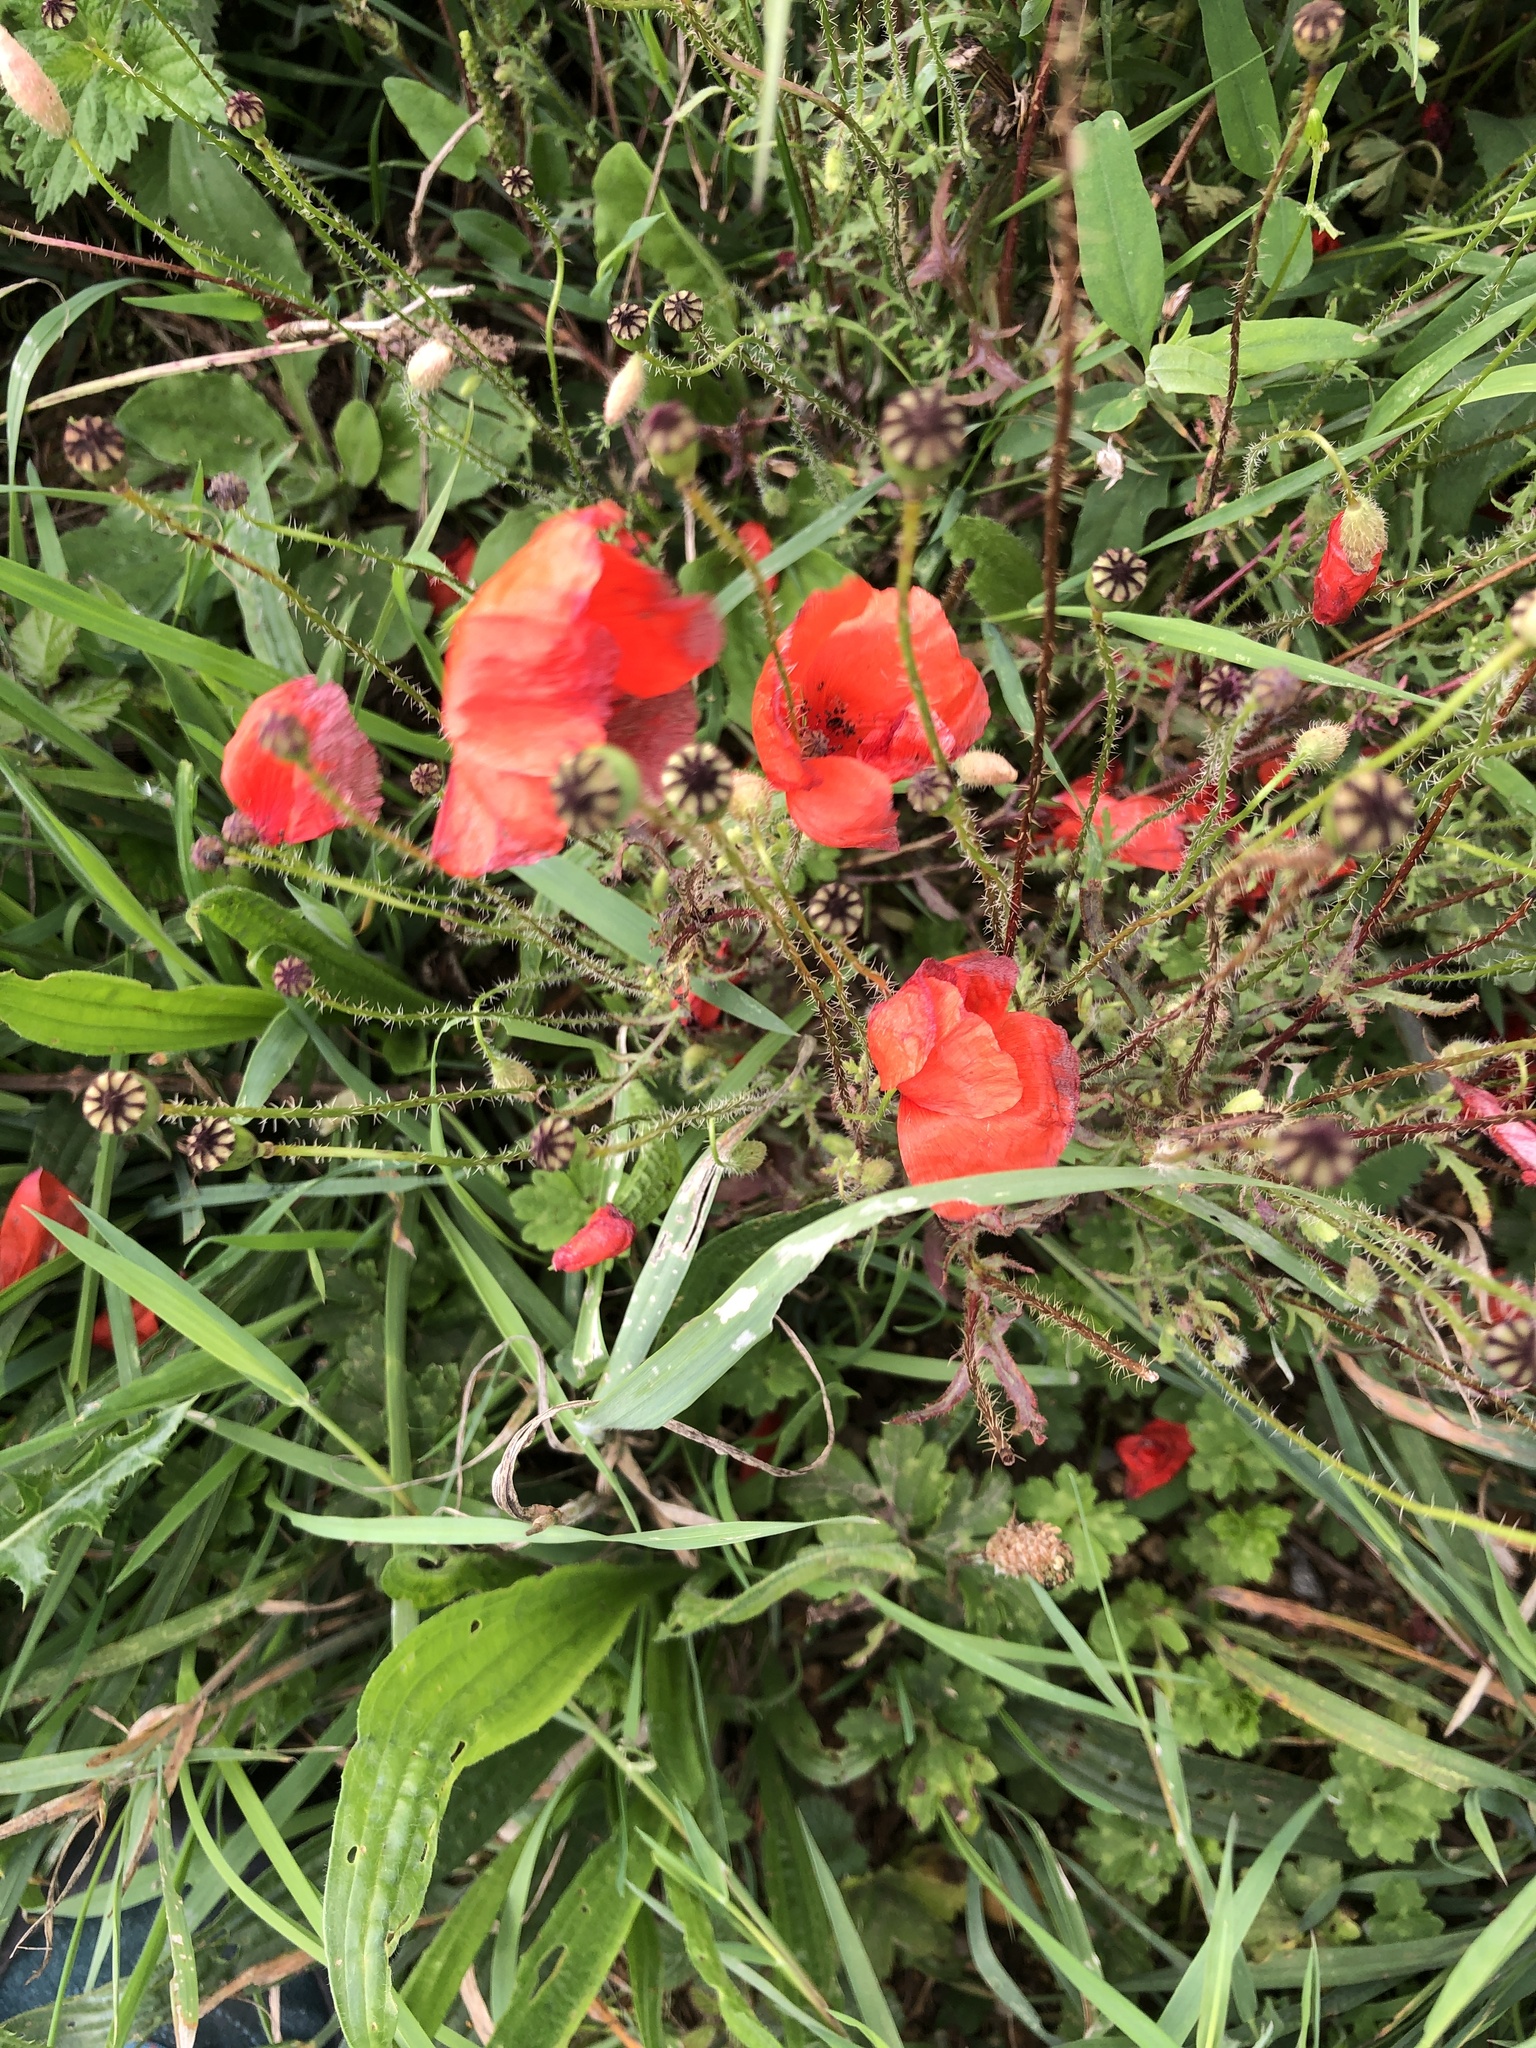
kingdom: Plantae
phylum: Tracheophyta
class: Magnoliopsida
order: Ranunculales
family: Papaveraceae
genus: Papaver
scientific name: Papaver rhoeas
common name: Corn poppy
